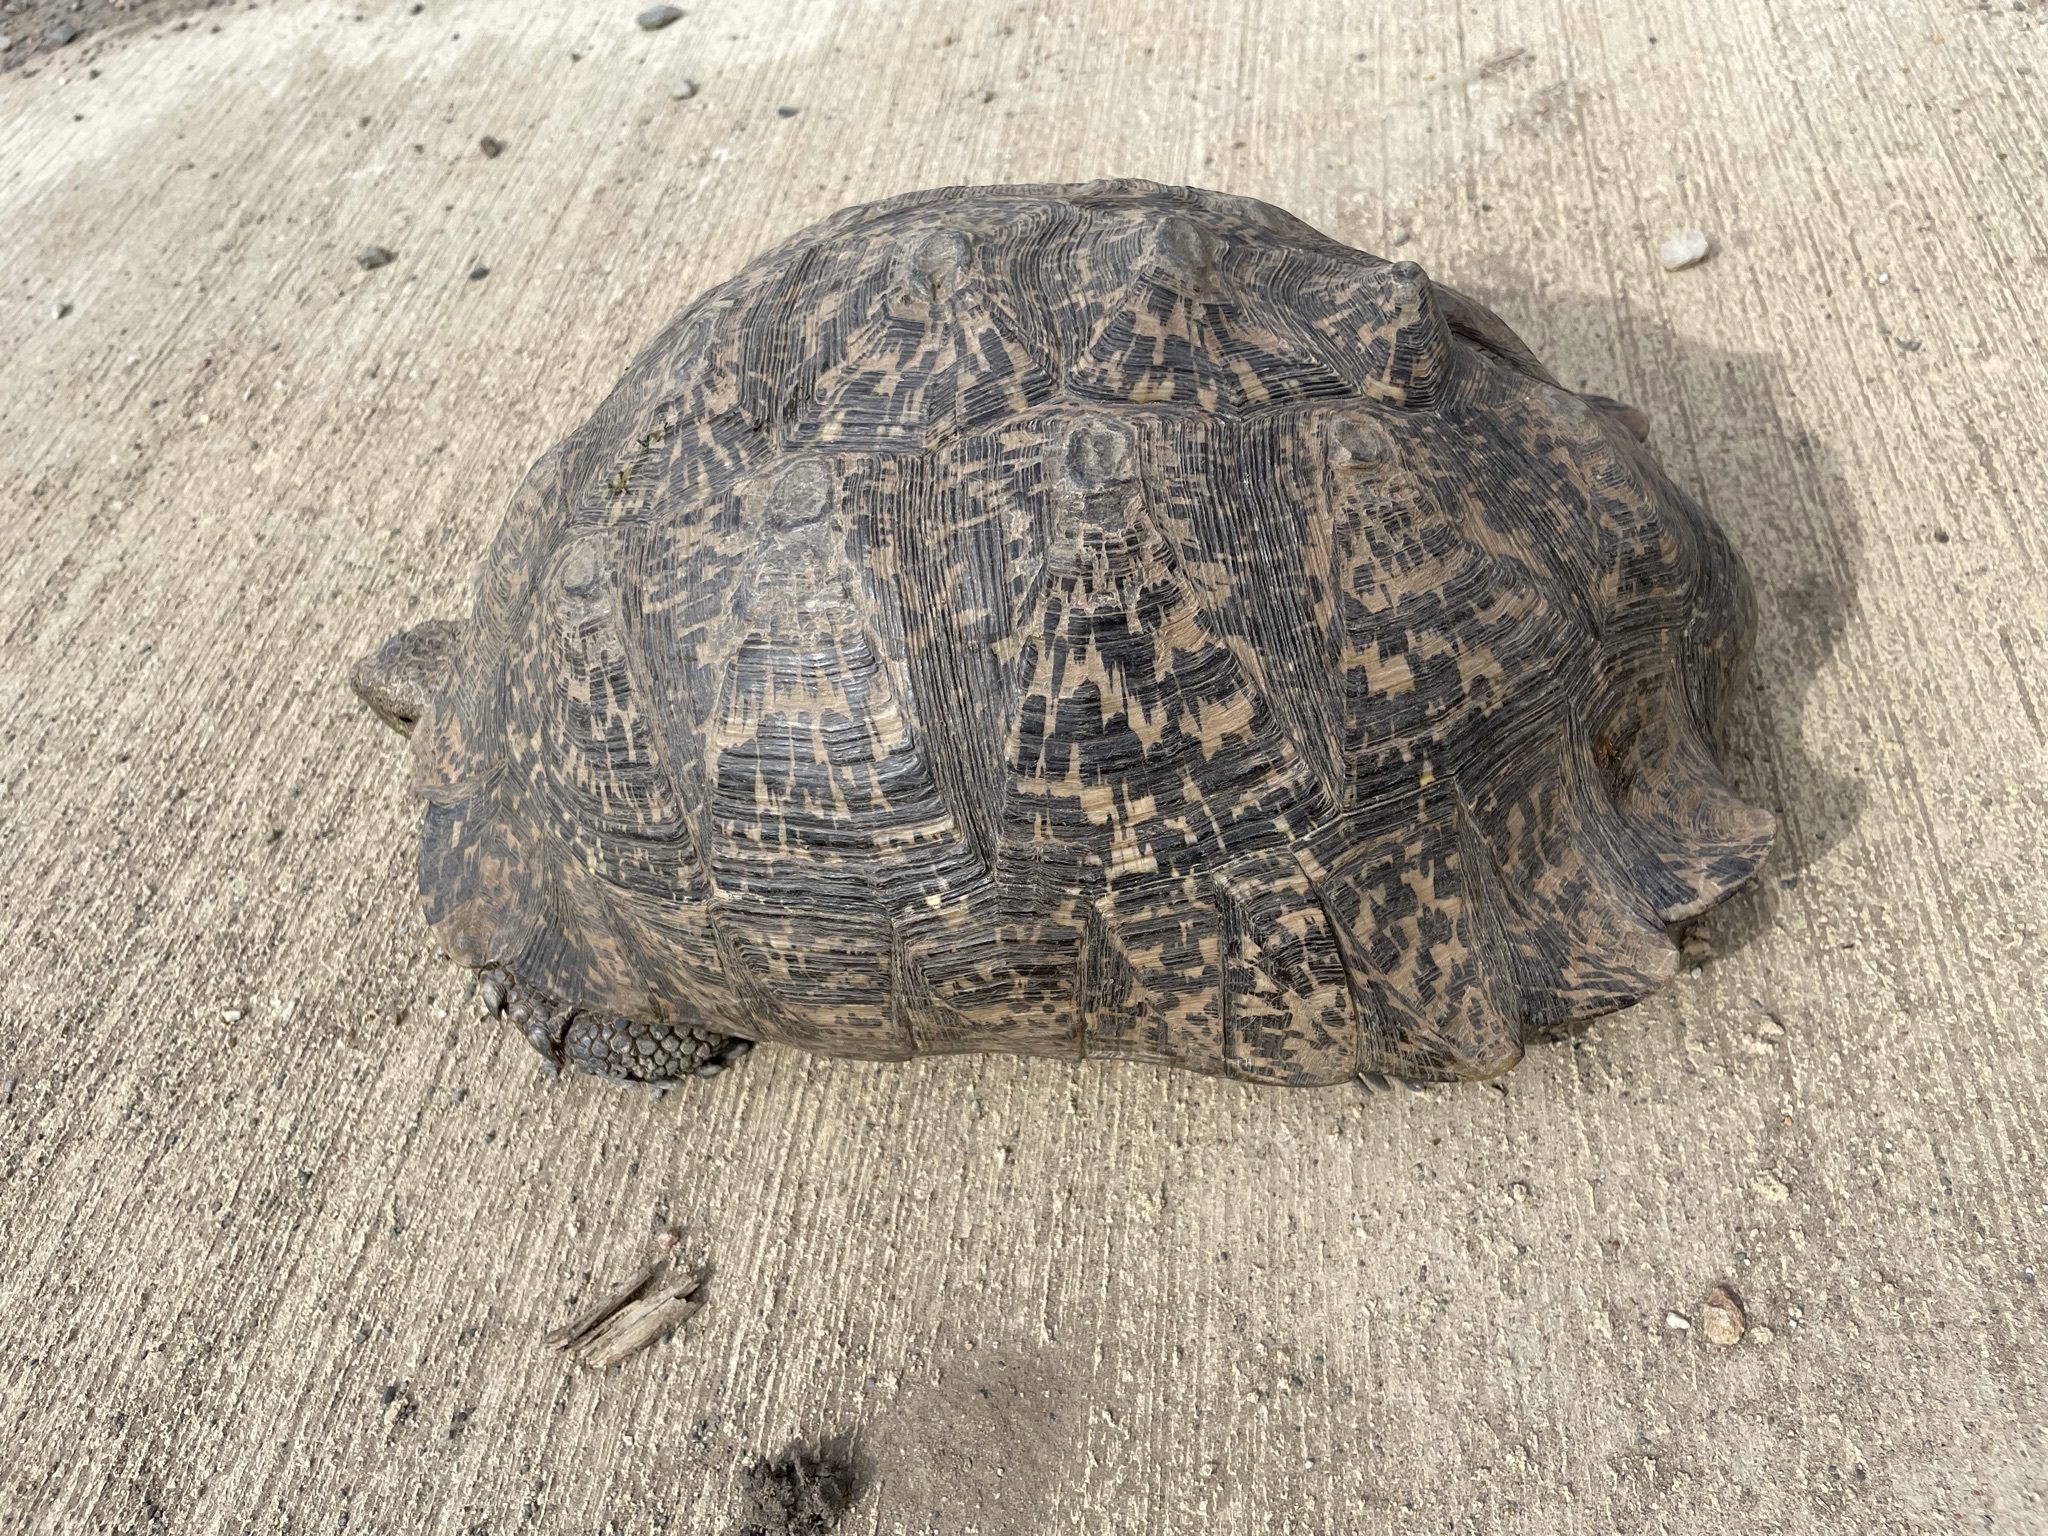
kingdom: Animalia
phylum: Chordata
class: Testudines
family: Testudinidae
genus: Stigmochelys
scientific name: Stigmochelys pardalis
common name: Leopard tortoise
